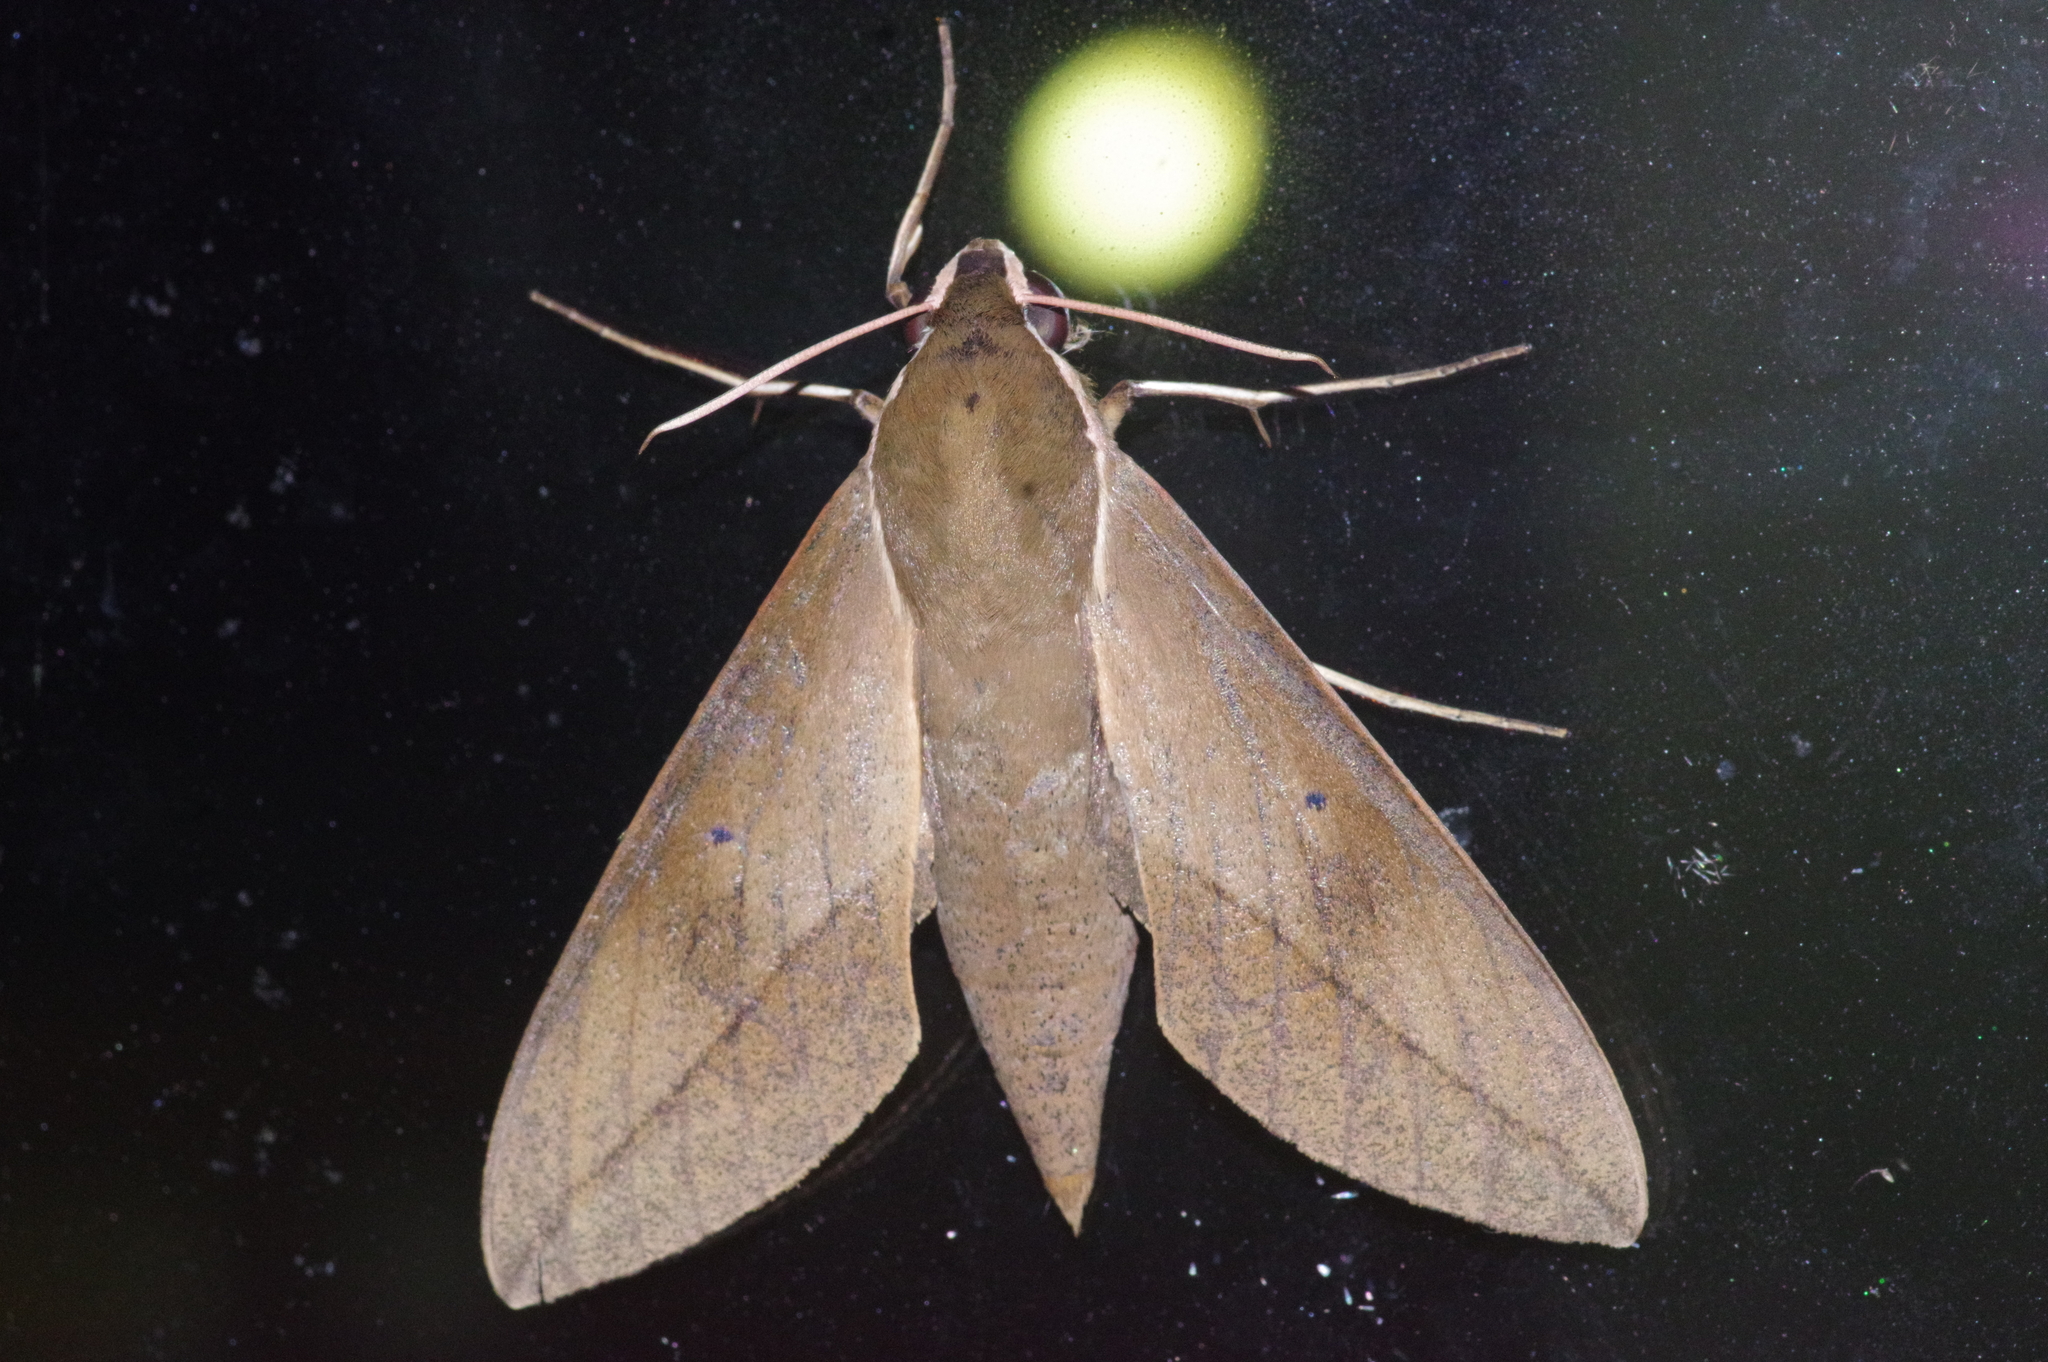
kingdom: Animalia
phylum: Arthropoda
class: Insecta
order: Lepidoptera
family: Sphingidae
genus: Theretra
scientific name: Theretra clotho
